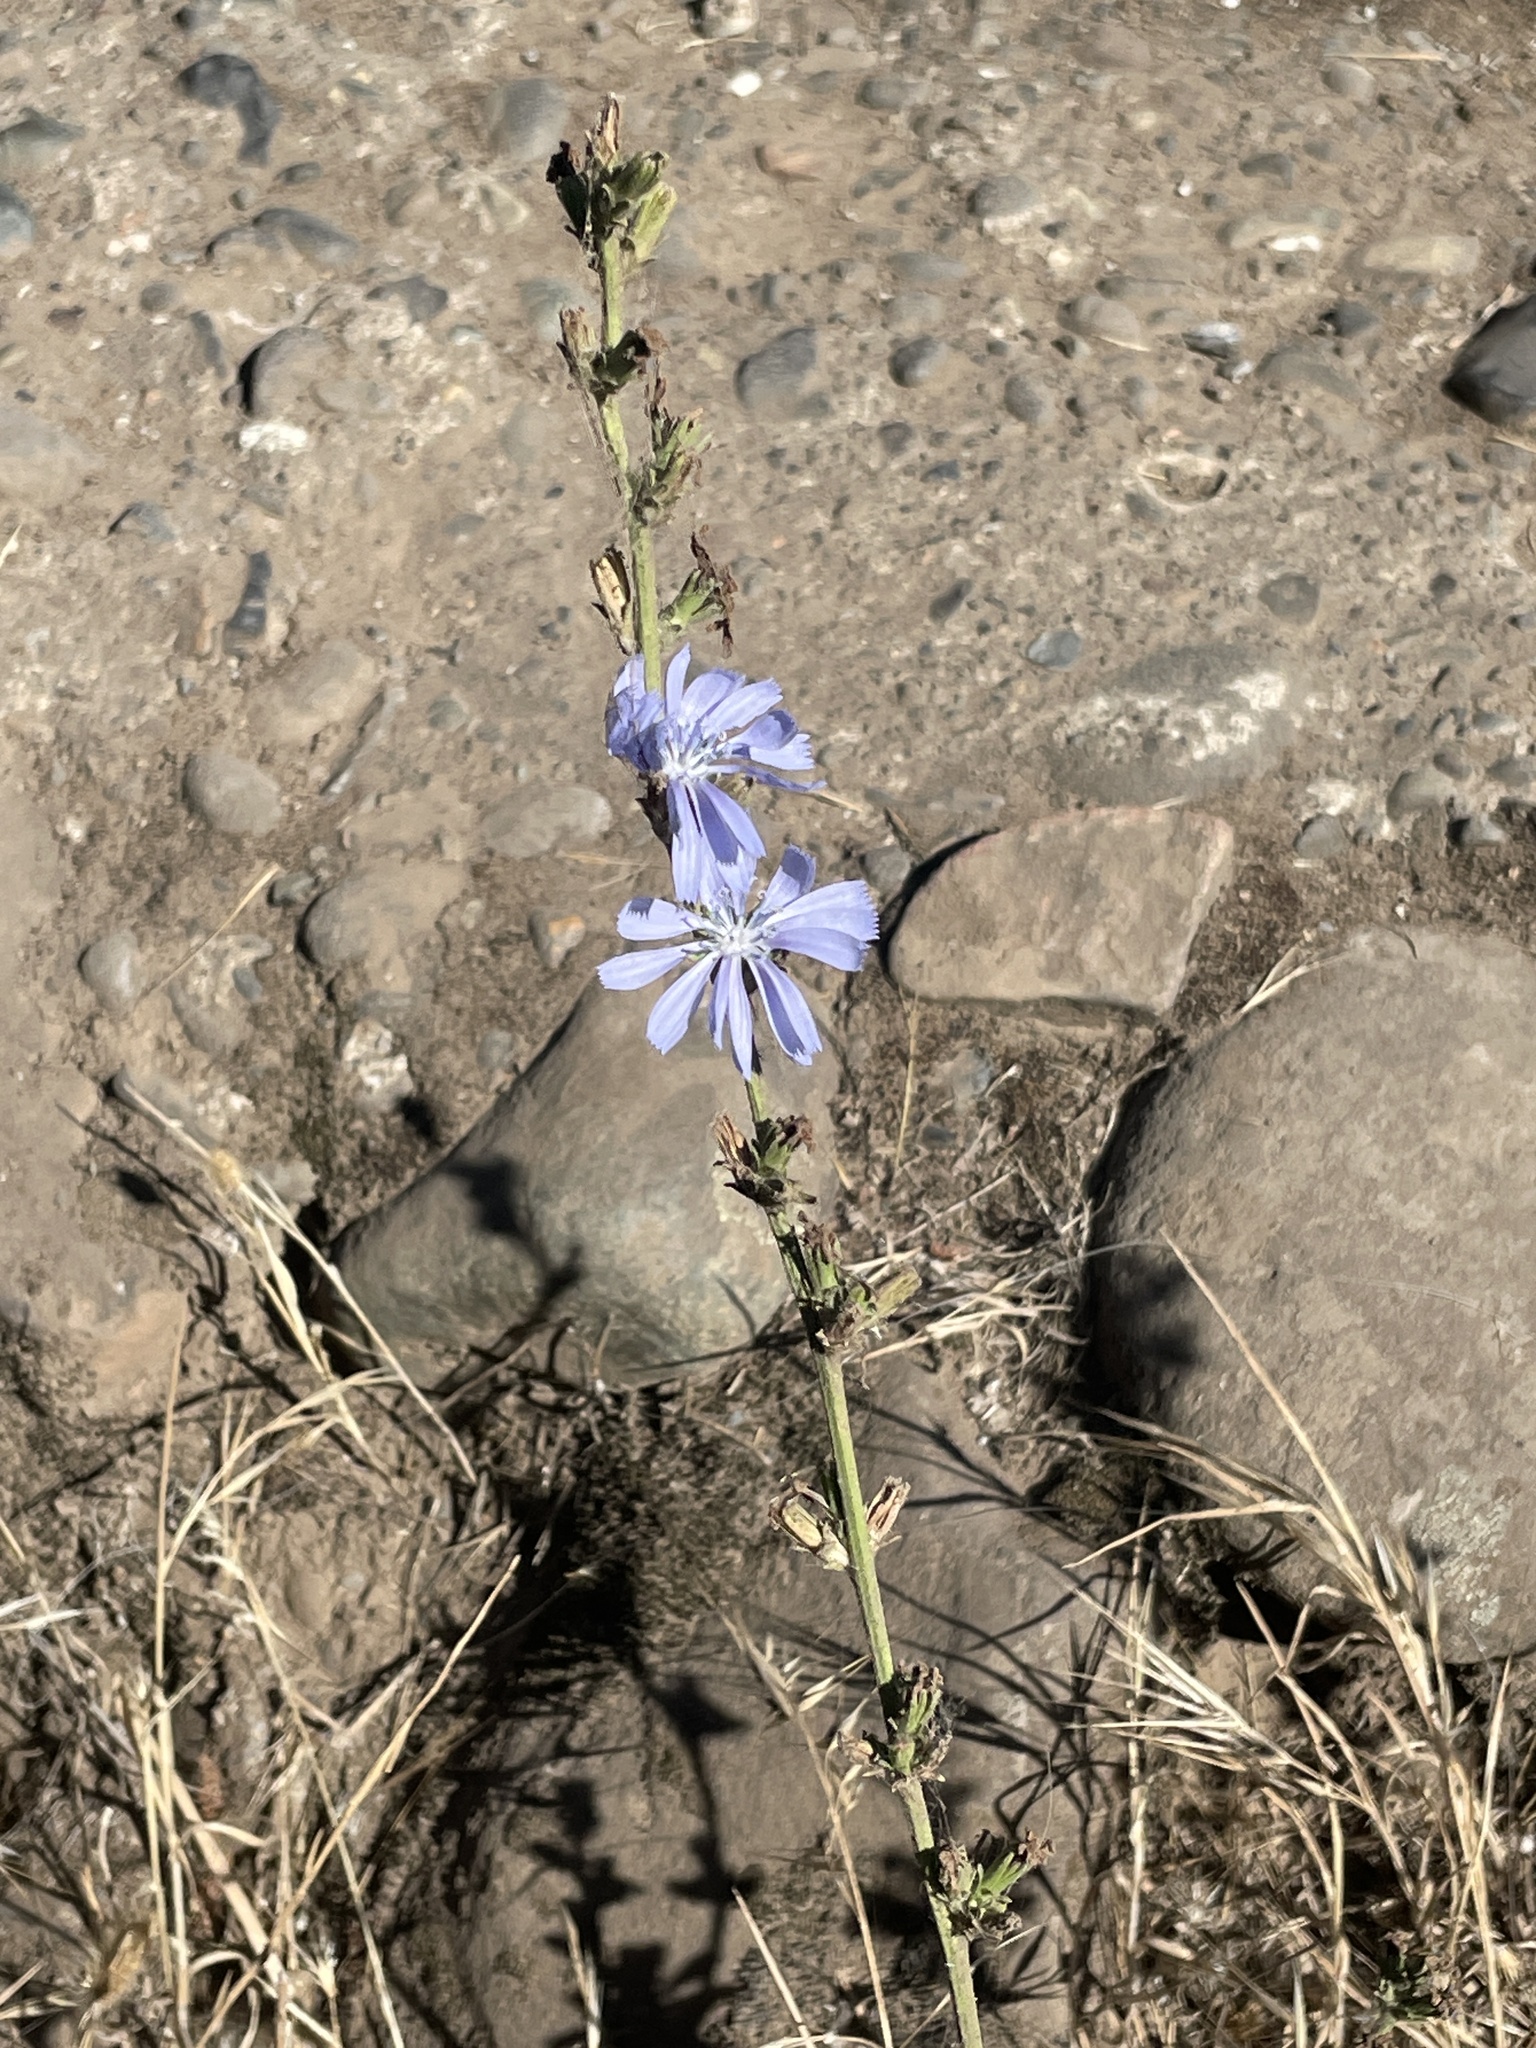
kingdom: Plantae
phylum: Tracheophyta
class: Magnoliopsida
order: Asterales
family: Asteraceae
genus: Cichorium
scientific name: Cichorium intybus
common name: Chicory
